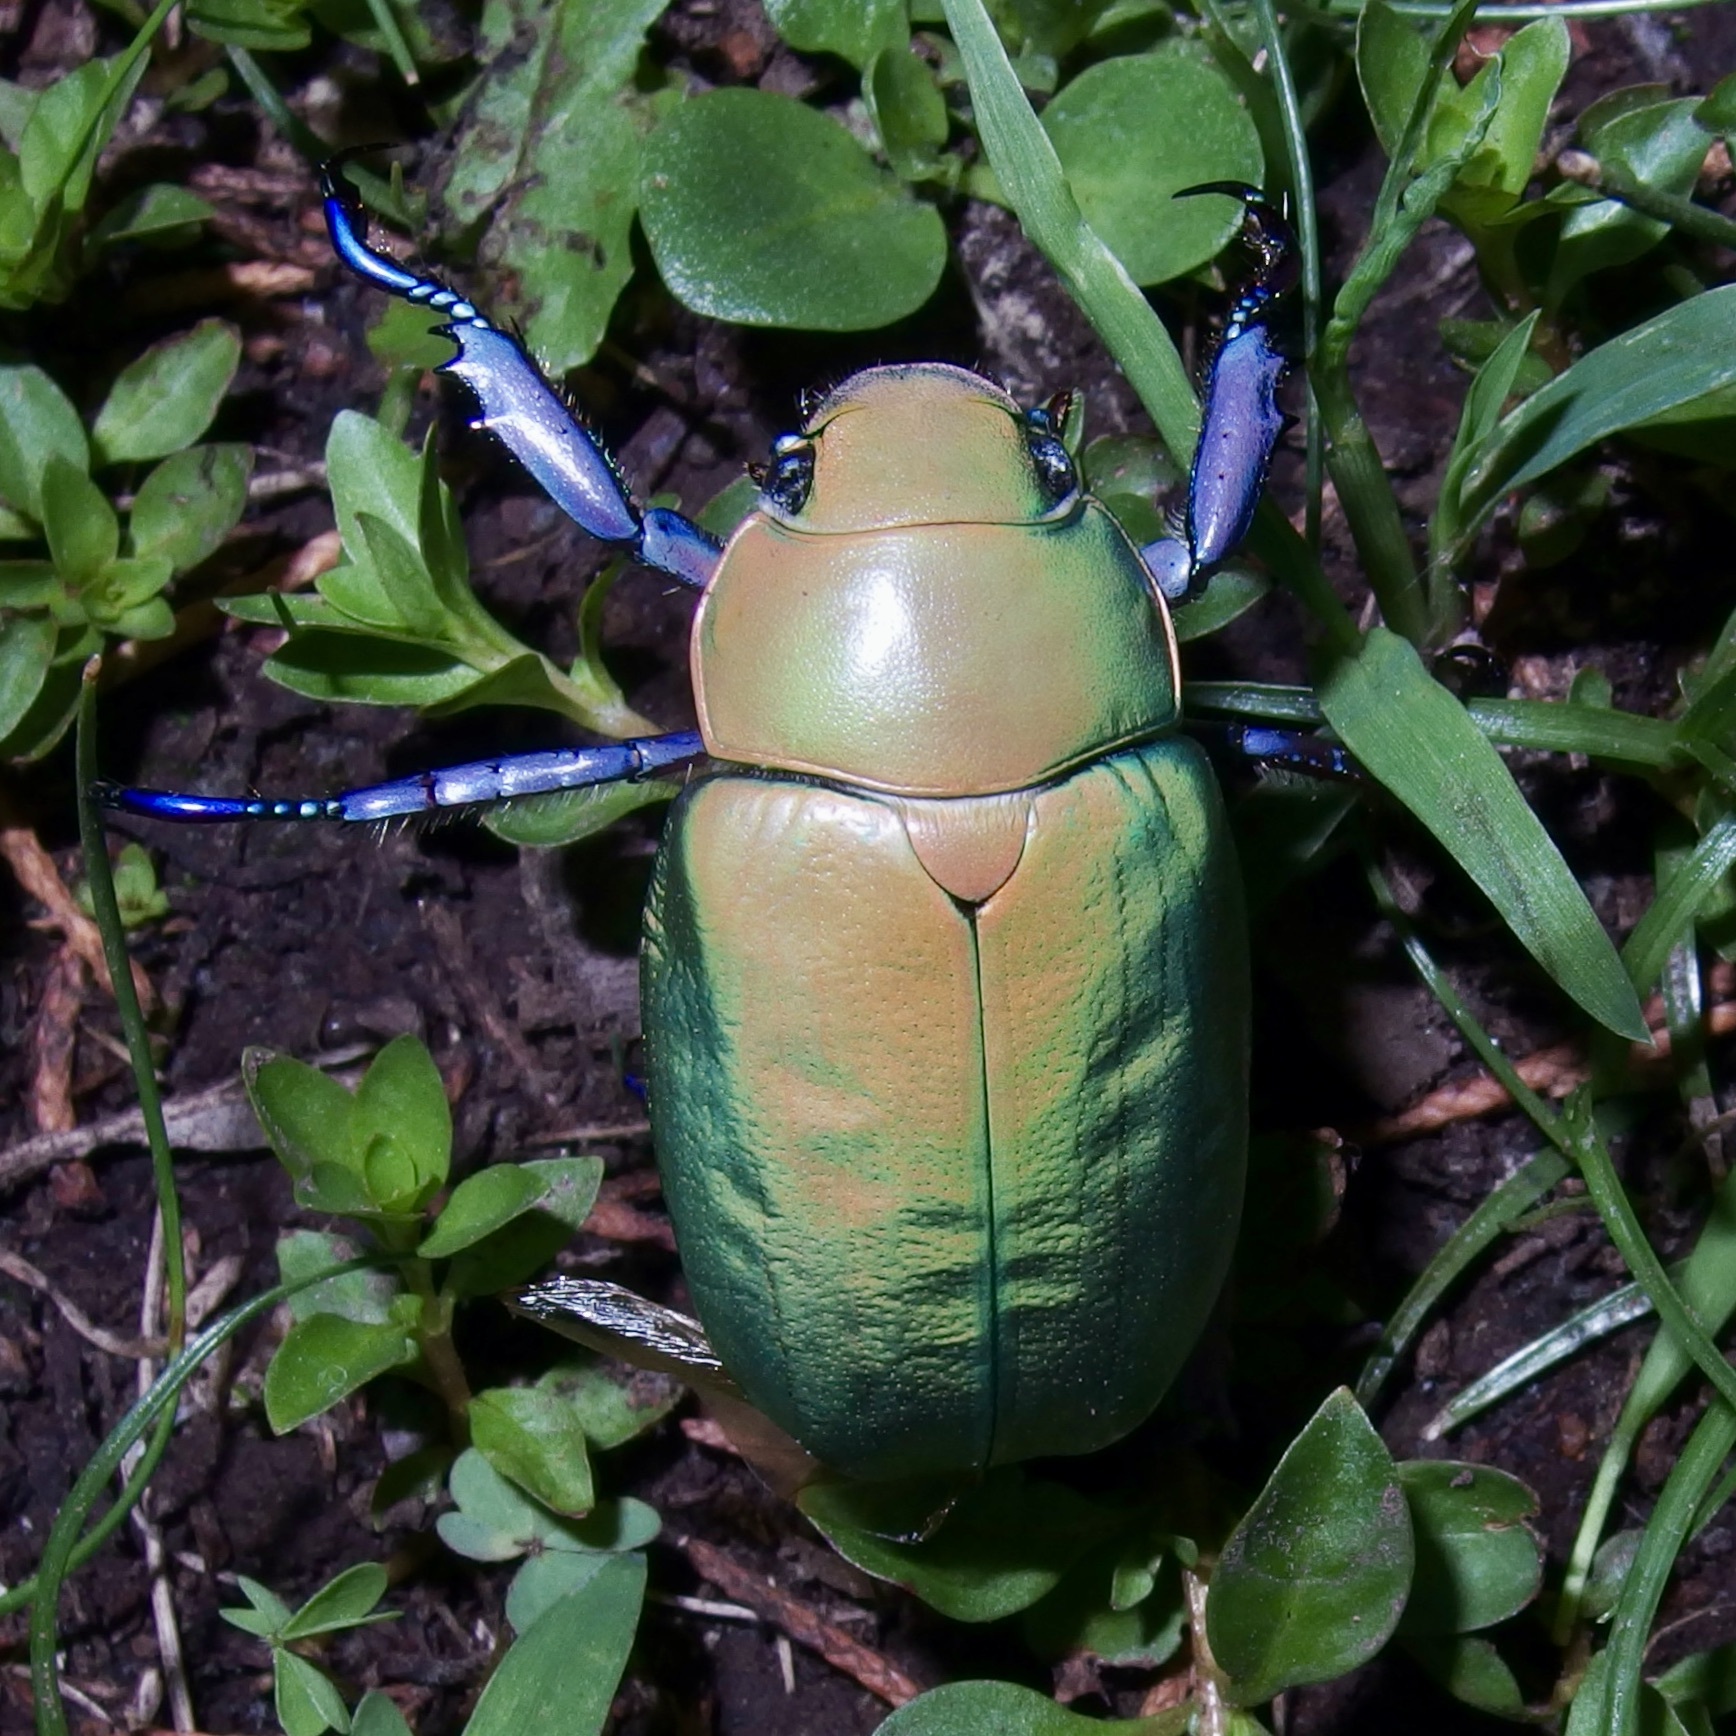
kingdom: Animalia
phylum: Arthropoda
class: Insecta
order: Coleoptera
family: Scarabaeidae
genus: Chrysina
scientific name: Chrysina beyeri
